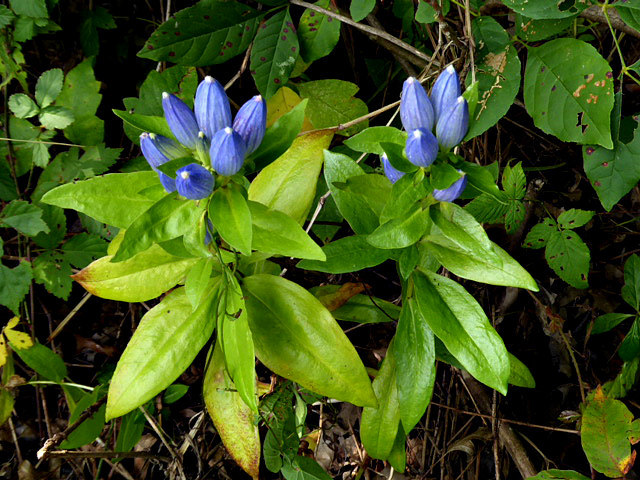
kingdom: Plantae
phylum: Tracheophyta
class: Magnoliopsida
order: Gentianales
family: Gentianaceae
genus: Gentiana
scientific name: Gentiana andrewsii
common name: Bottle gentian
